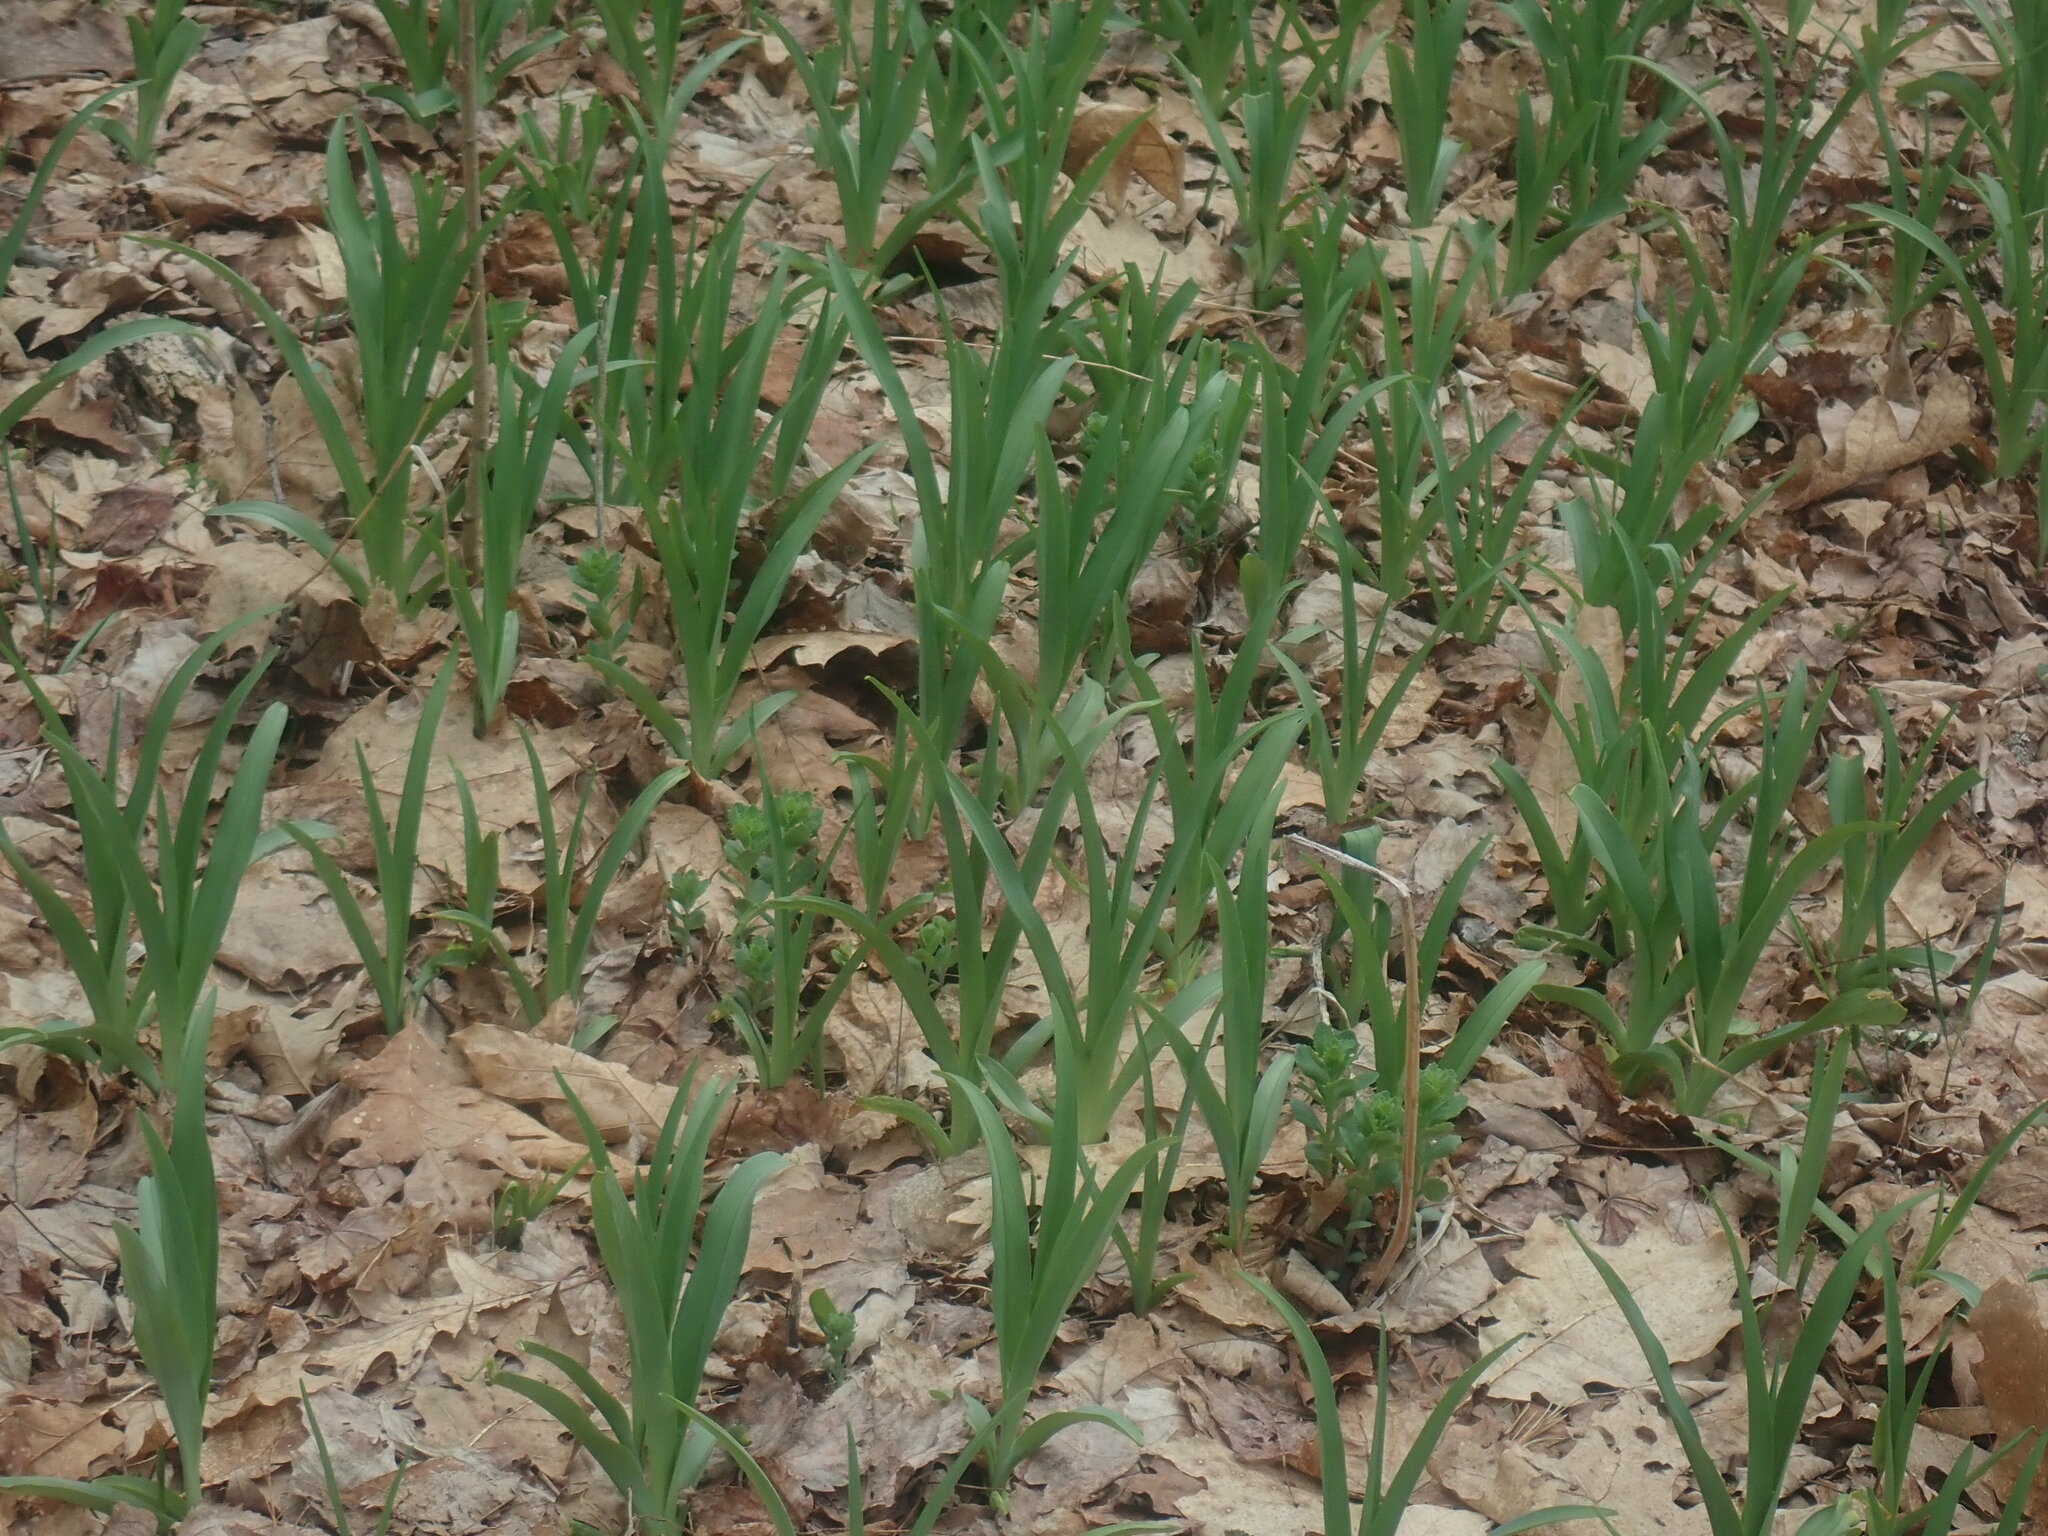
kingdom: Plantae
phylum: Tracheophyta
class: Liliopsida
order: Asparagales
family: Asphodelaceae
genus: Hemerocallis
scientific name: Hemerocallis
